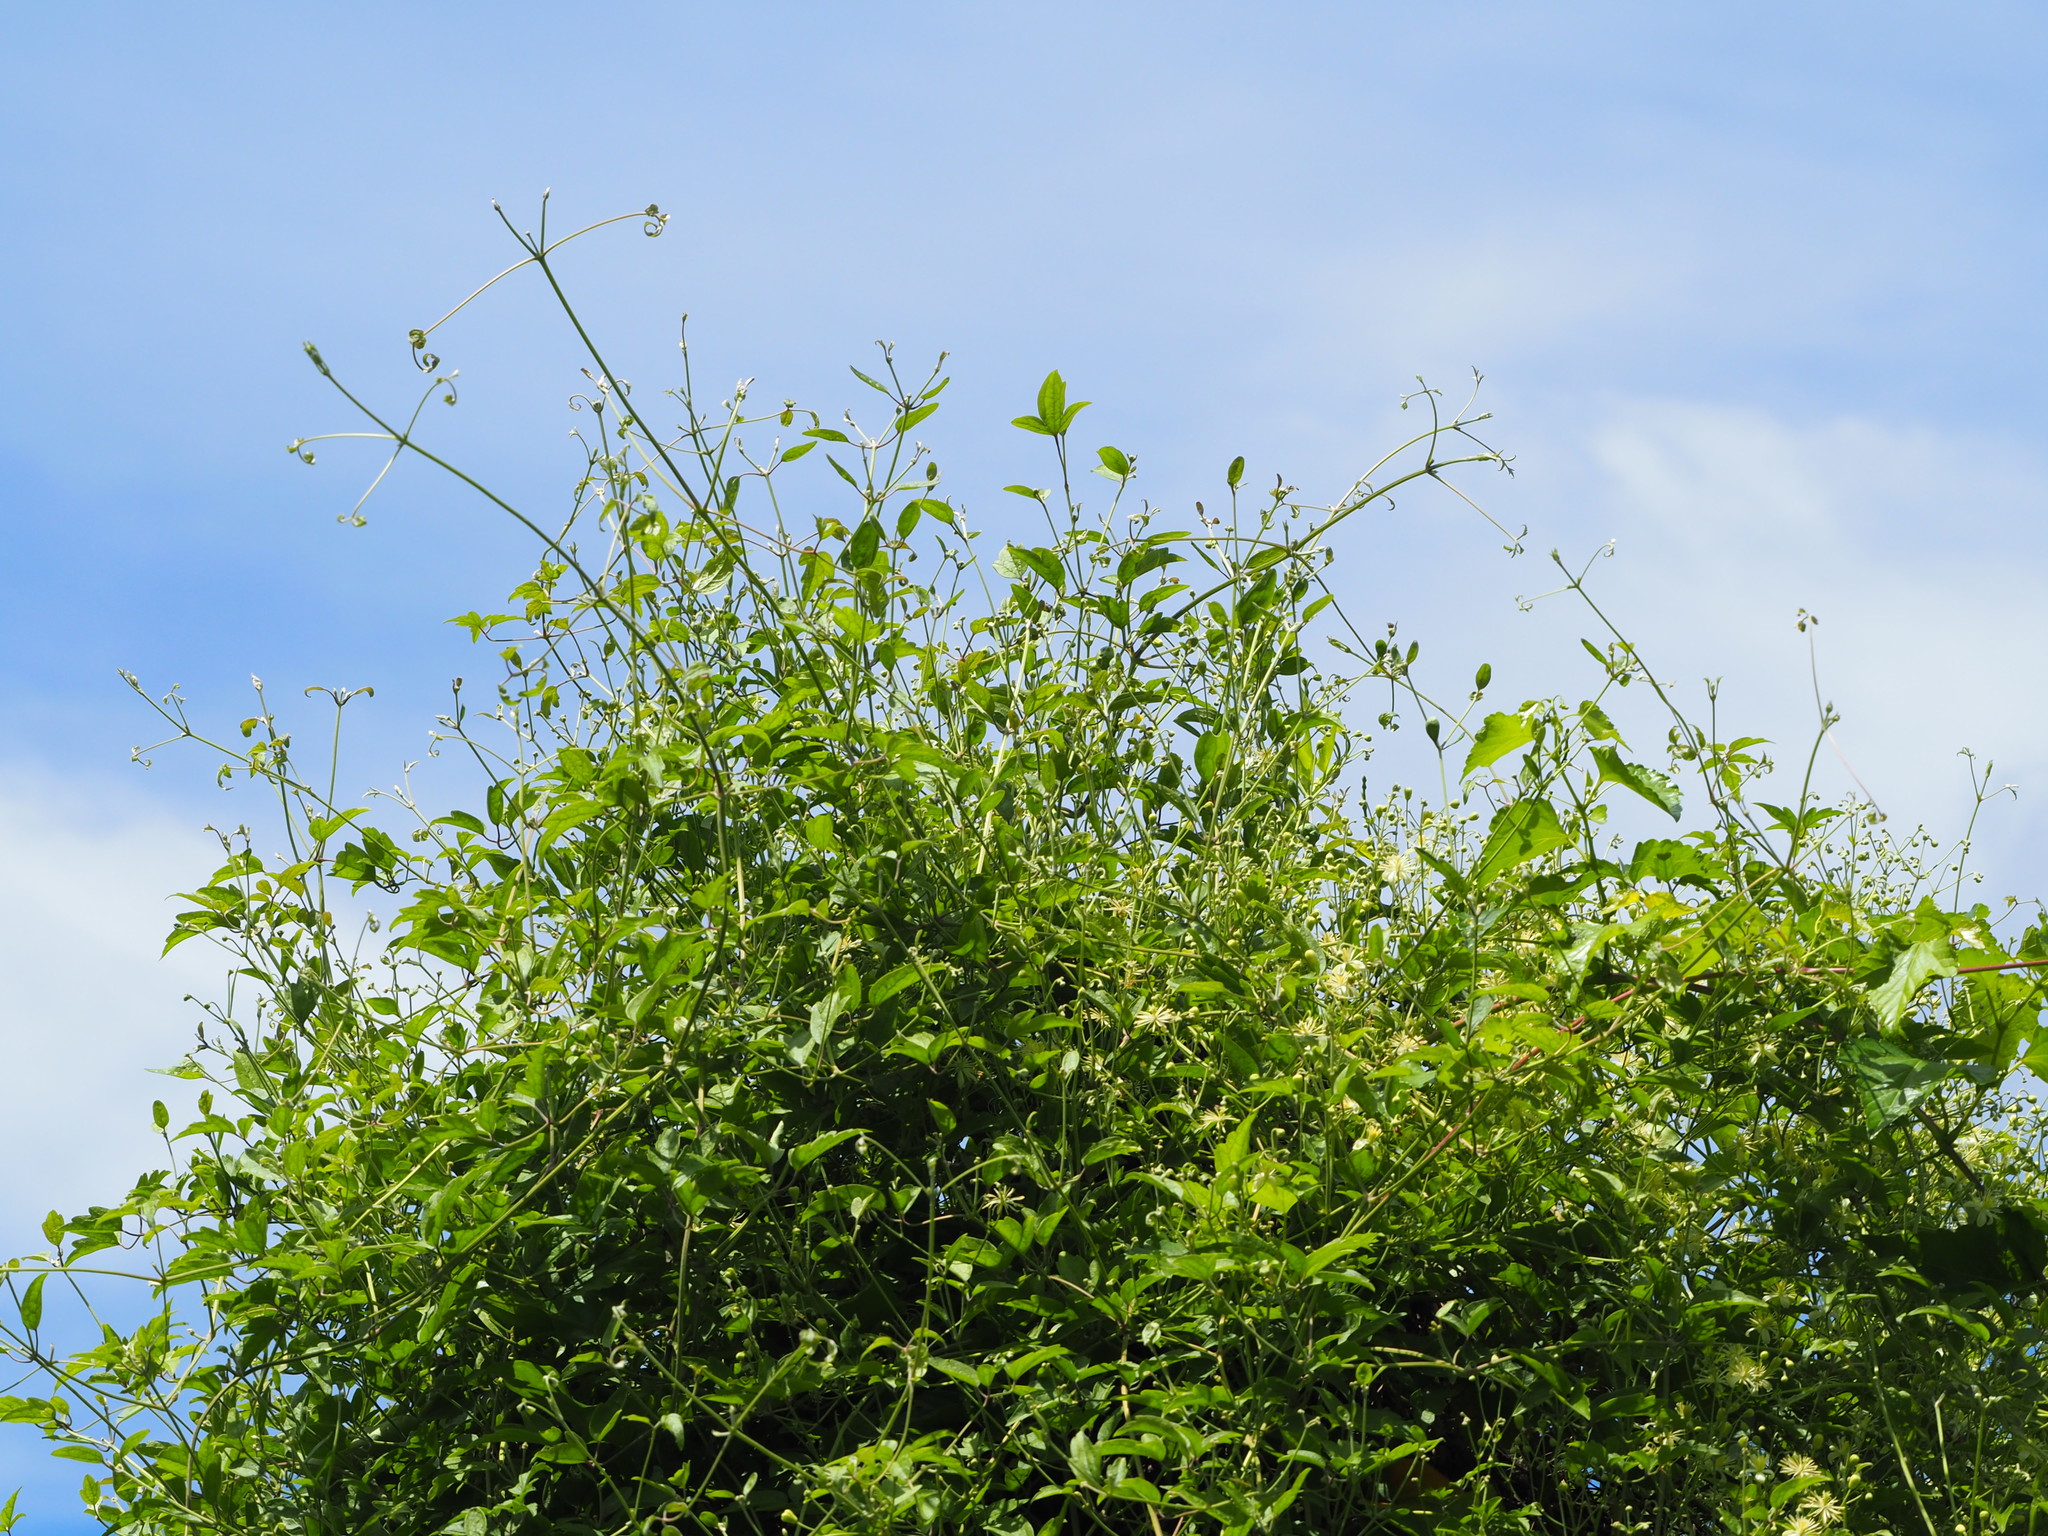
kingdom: Plantae
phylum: Tracheophyta
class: Magnoliopsida
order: Ranunculales
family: Ranunculaceae
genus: Clematis
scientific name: Clematis grata
